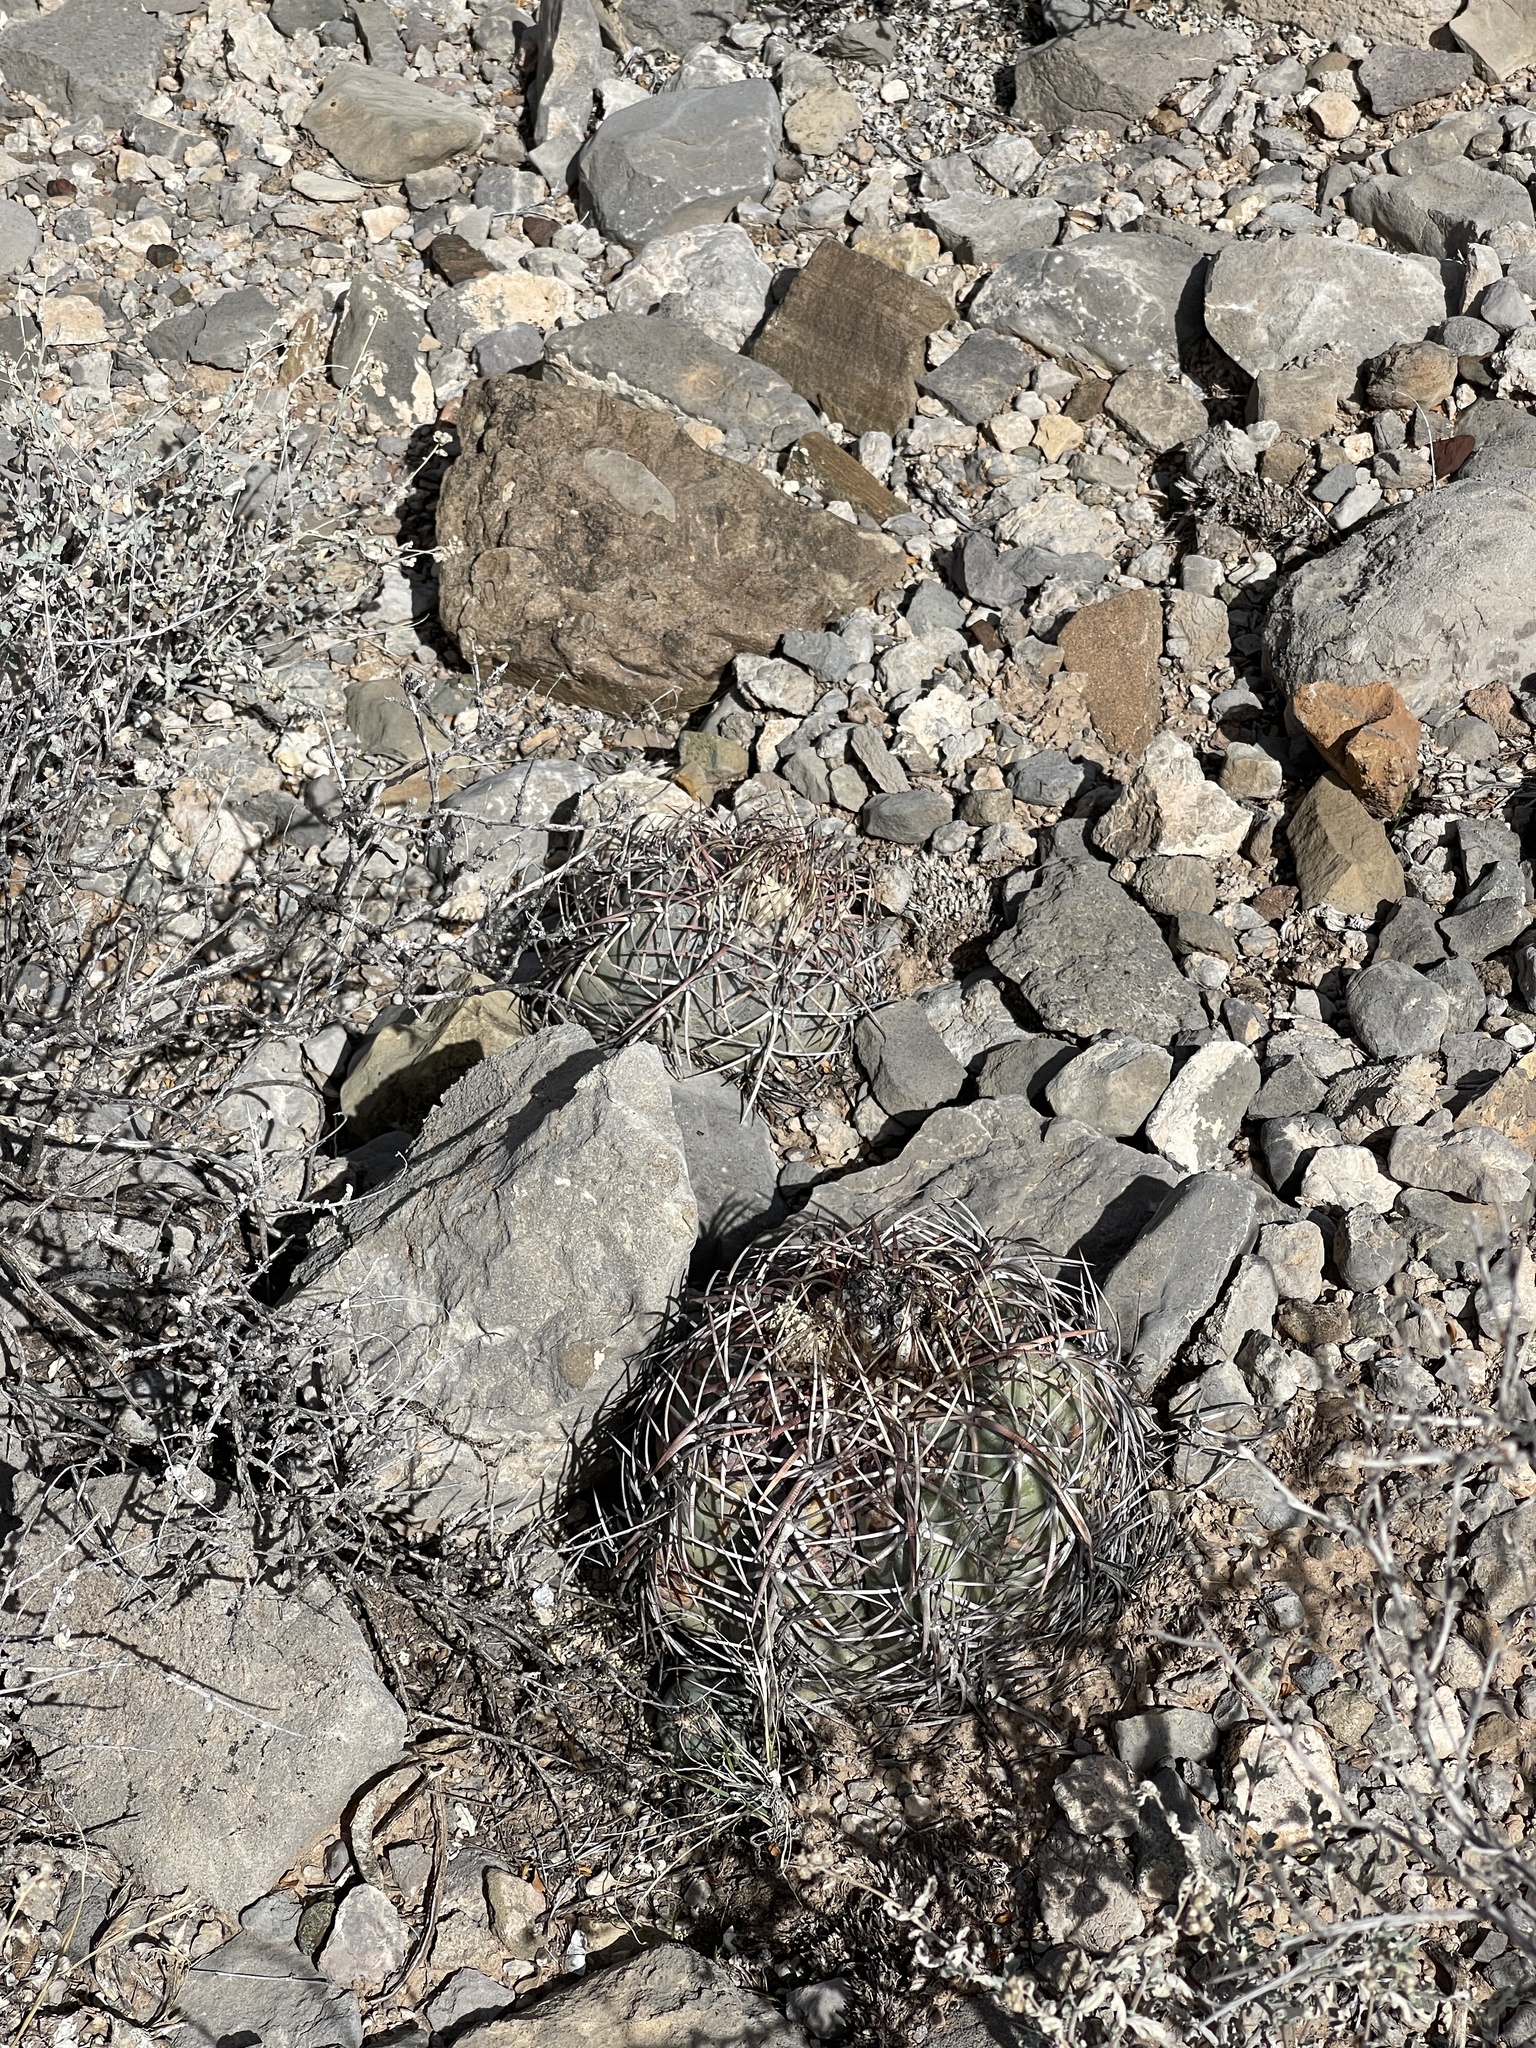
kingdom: Plantae
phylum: Tracheophyta
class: Magnoliopsida
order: Caryophyllales
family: Cactaceae
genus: Echinocactus
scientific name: Echinocactus horizonthalonius
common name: Devilshead
